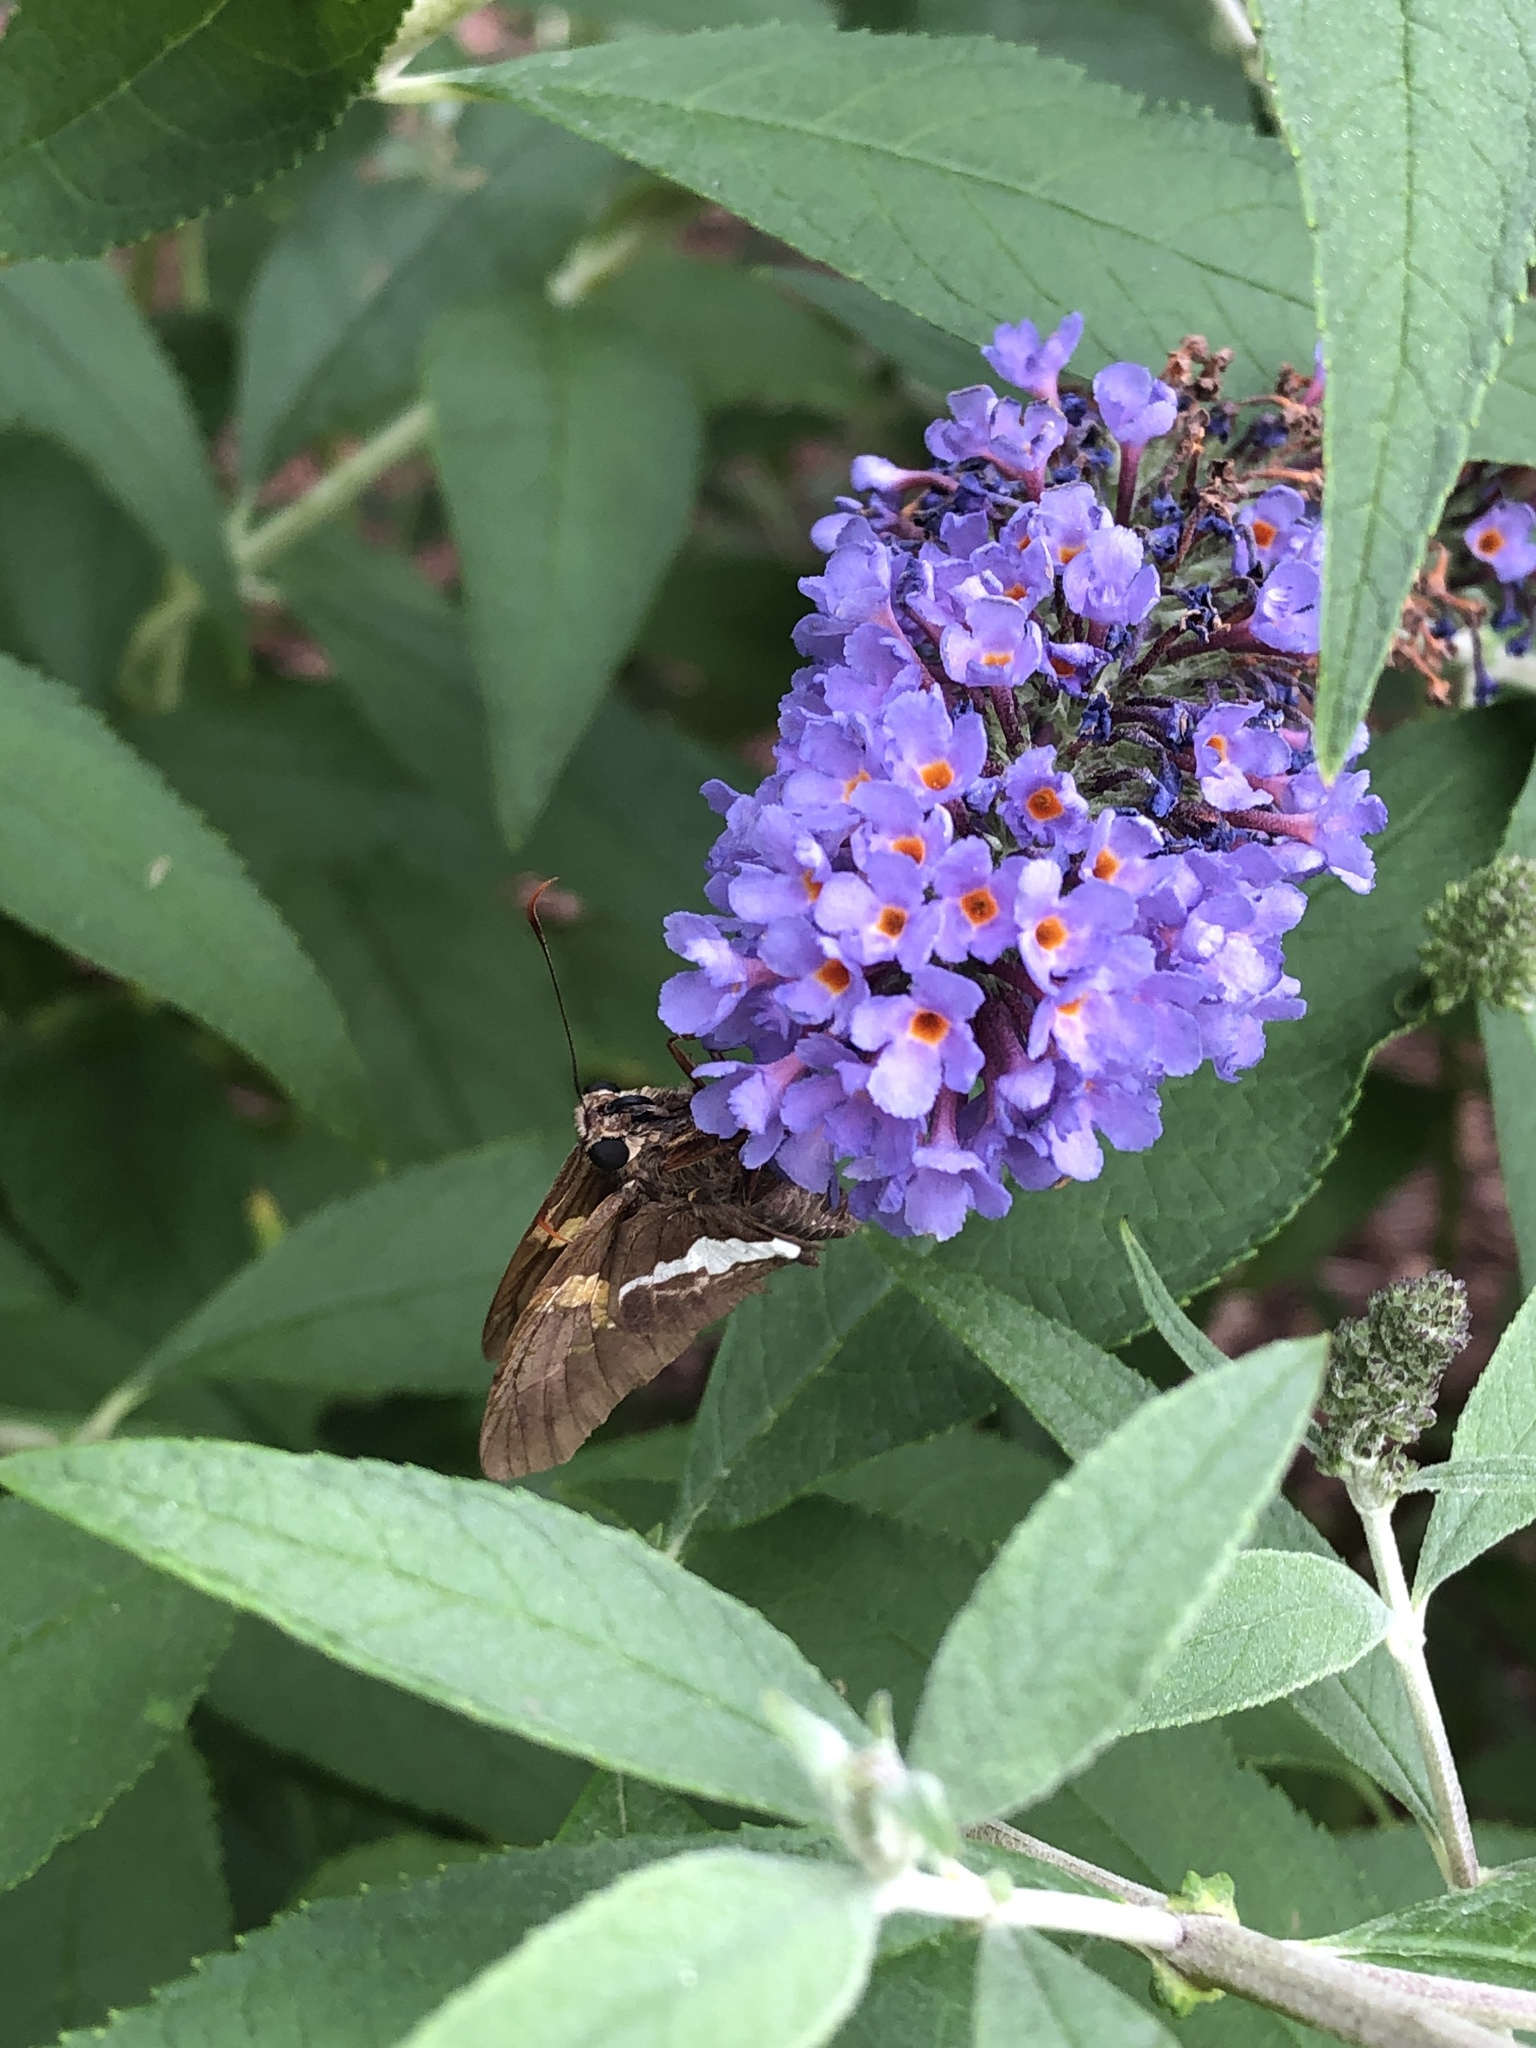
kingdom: Animalia
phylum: Arthropoda
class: Insecta
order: Lepidoptera
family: Hesperiidae
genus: Epargyreus
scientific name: Epargyreus clarus
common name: Silver-spotted skipper
